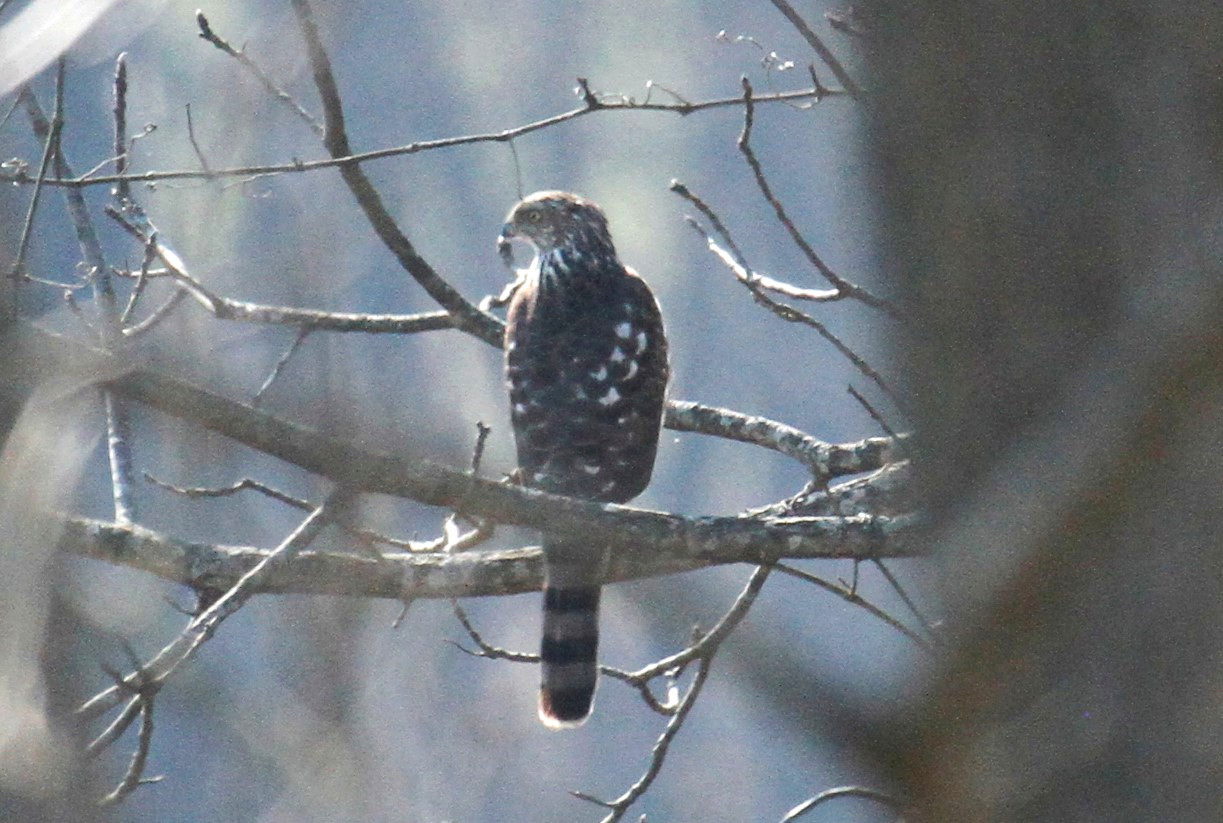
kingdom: Animalia
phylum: Chordata
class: Aves
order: Accipitriformes
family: Accipitridae
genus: Accipiter
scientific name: Accipiter cooperii
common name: Cooper's hawk
